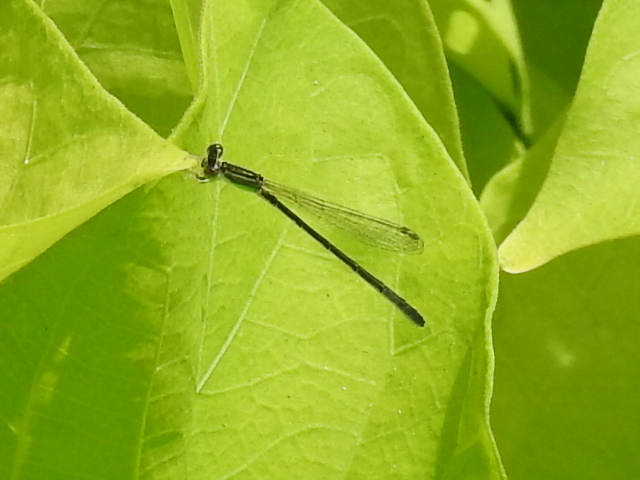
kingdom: Animalia
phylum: Arthropoda
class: Insecta
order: Odonata
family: Coenagrionidae
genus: Ischnura
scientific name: Ischnura hastata
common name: Citrine forktail
